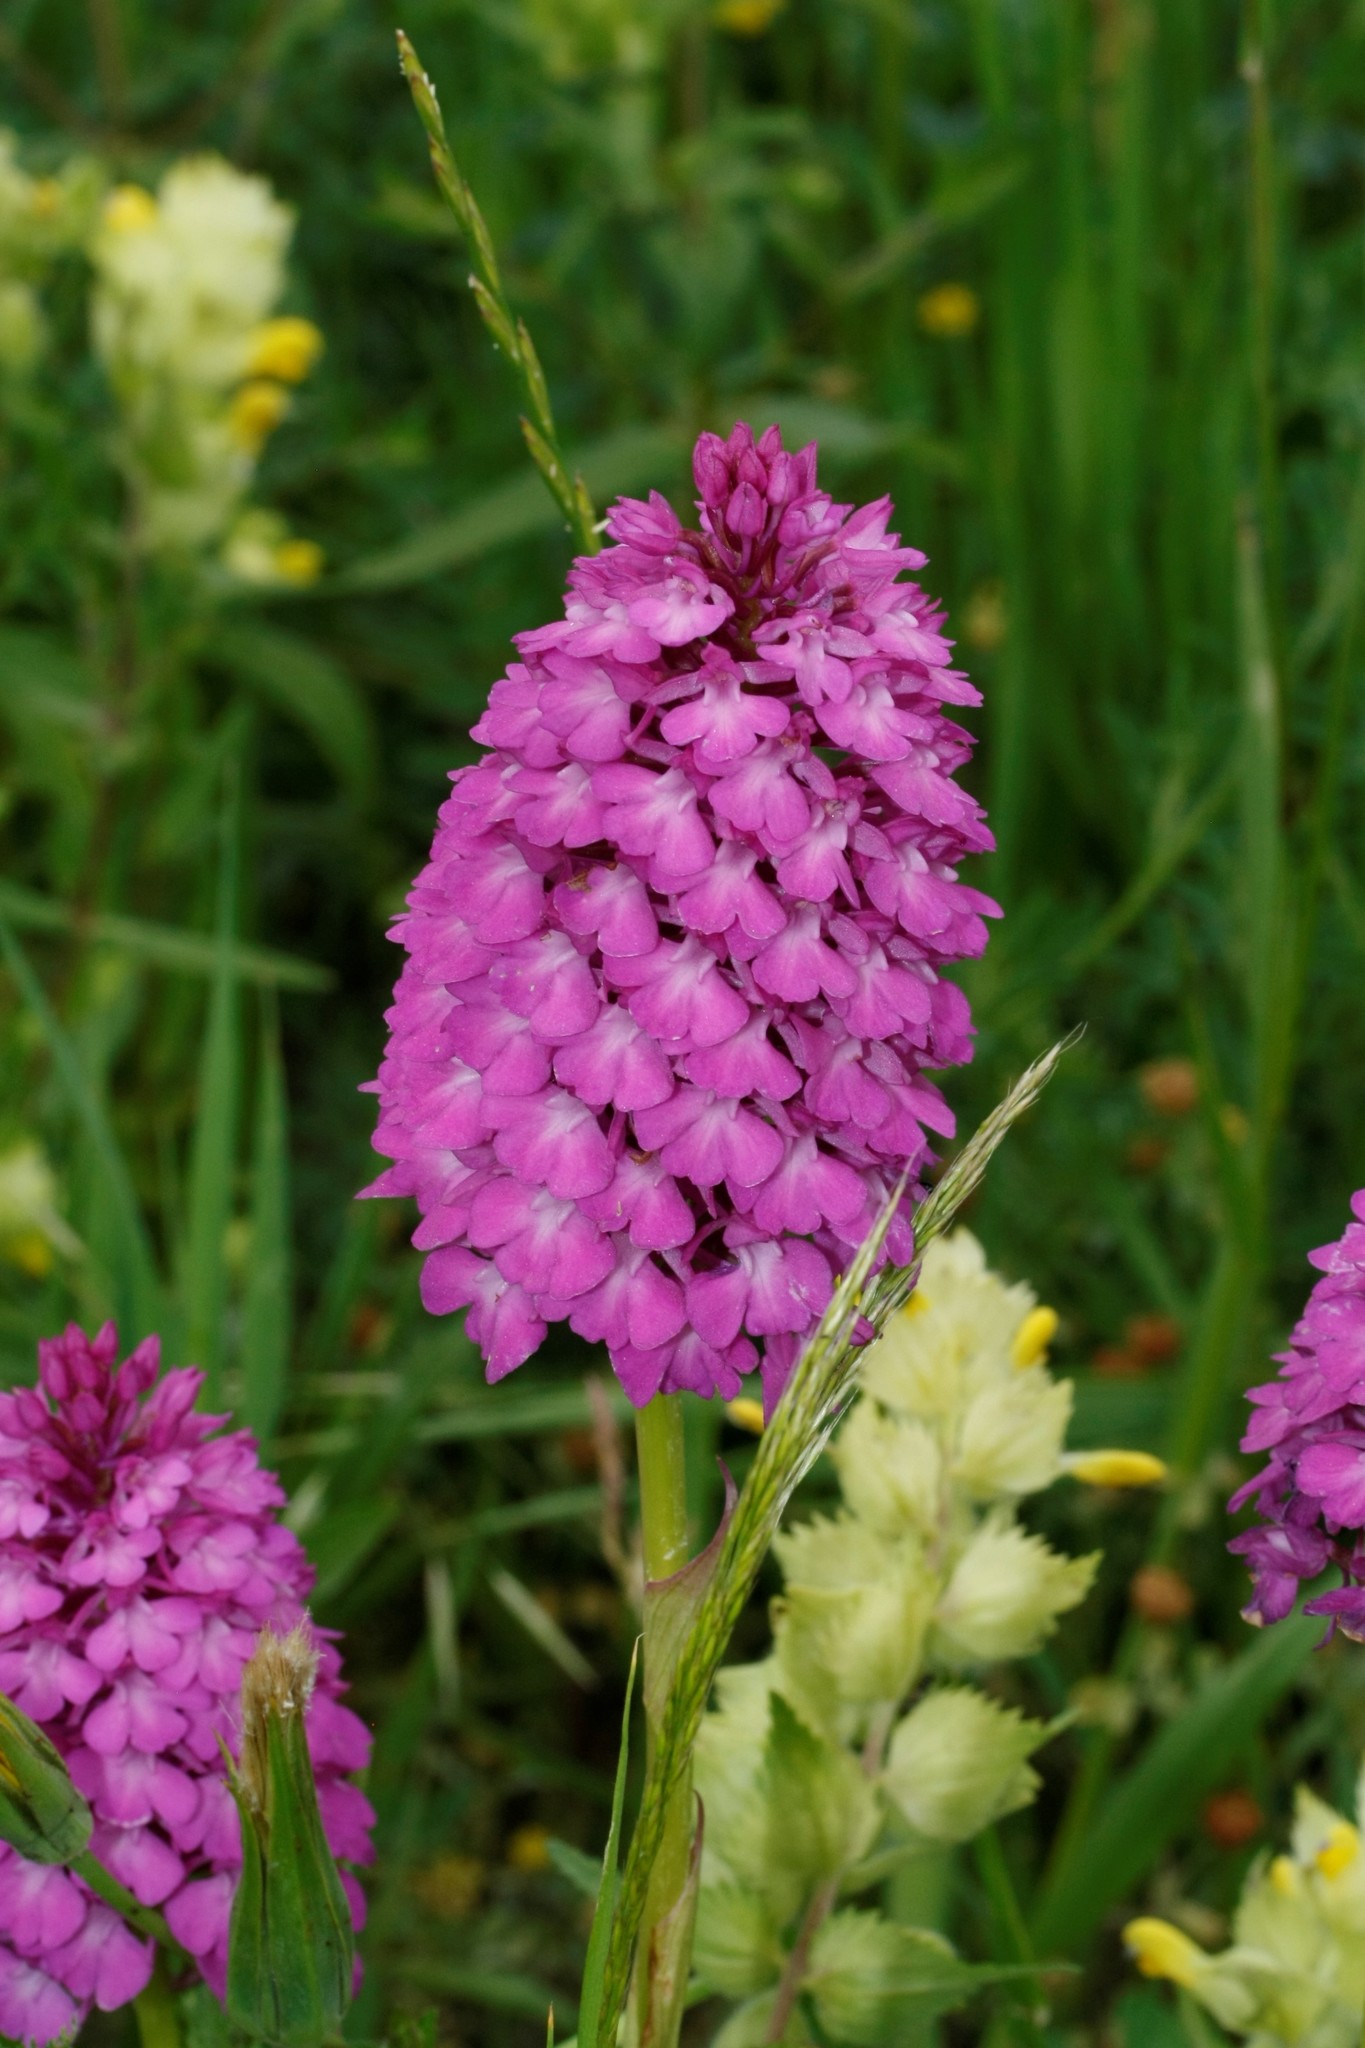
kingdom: Plantae
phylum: Tracheophyta
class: Liliopsida
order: Asparagales
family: Orchidaceae
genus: Anacamptis
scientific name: Anacamptis pyramidalis
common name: Pyramidal orchid
